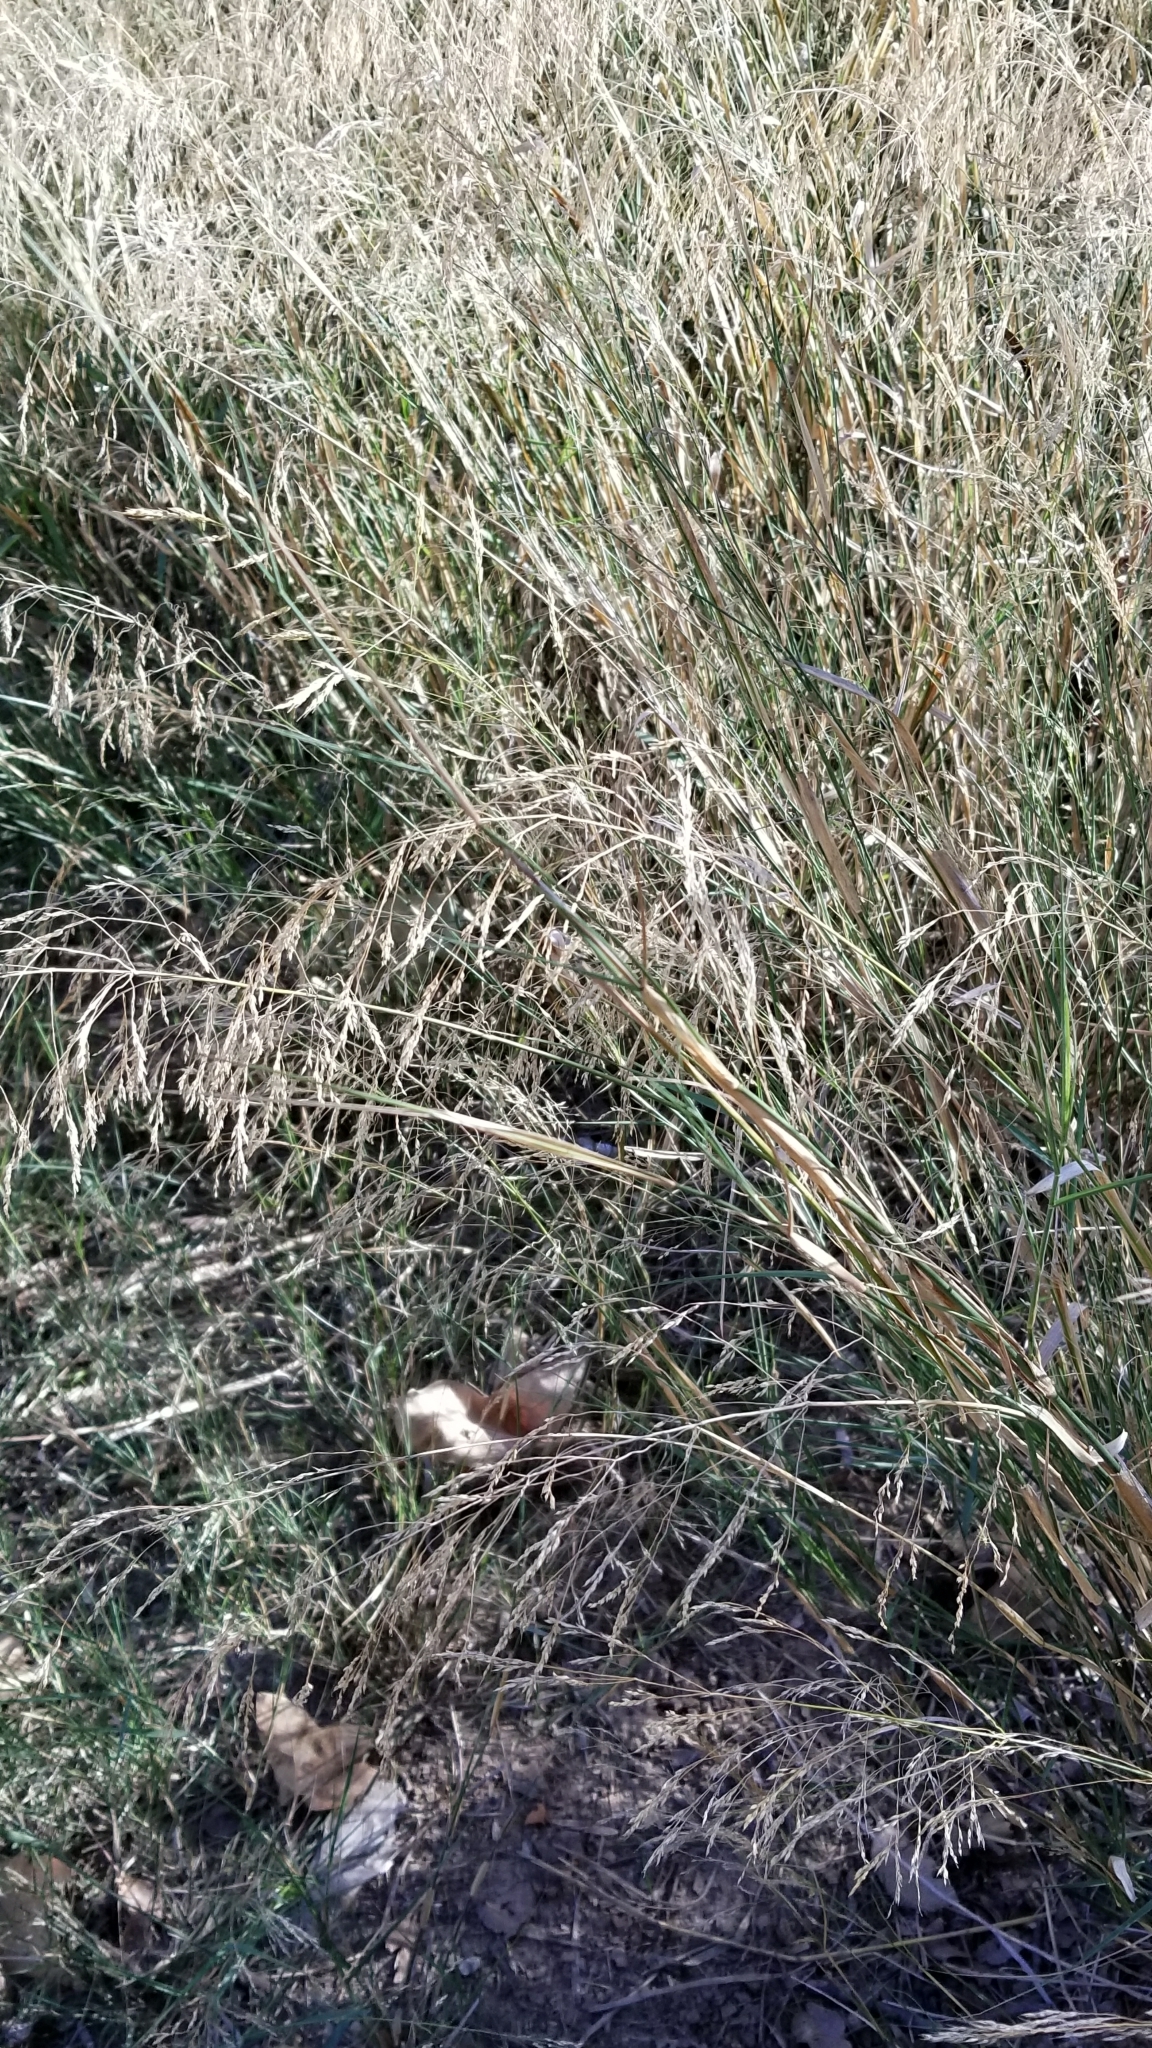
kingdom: Plantae
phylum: Tracheophyta
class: Liliopsida
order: Poales
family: Poaceae
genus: Oloptum
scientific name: Oloptum miliaceum
